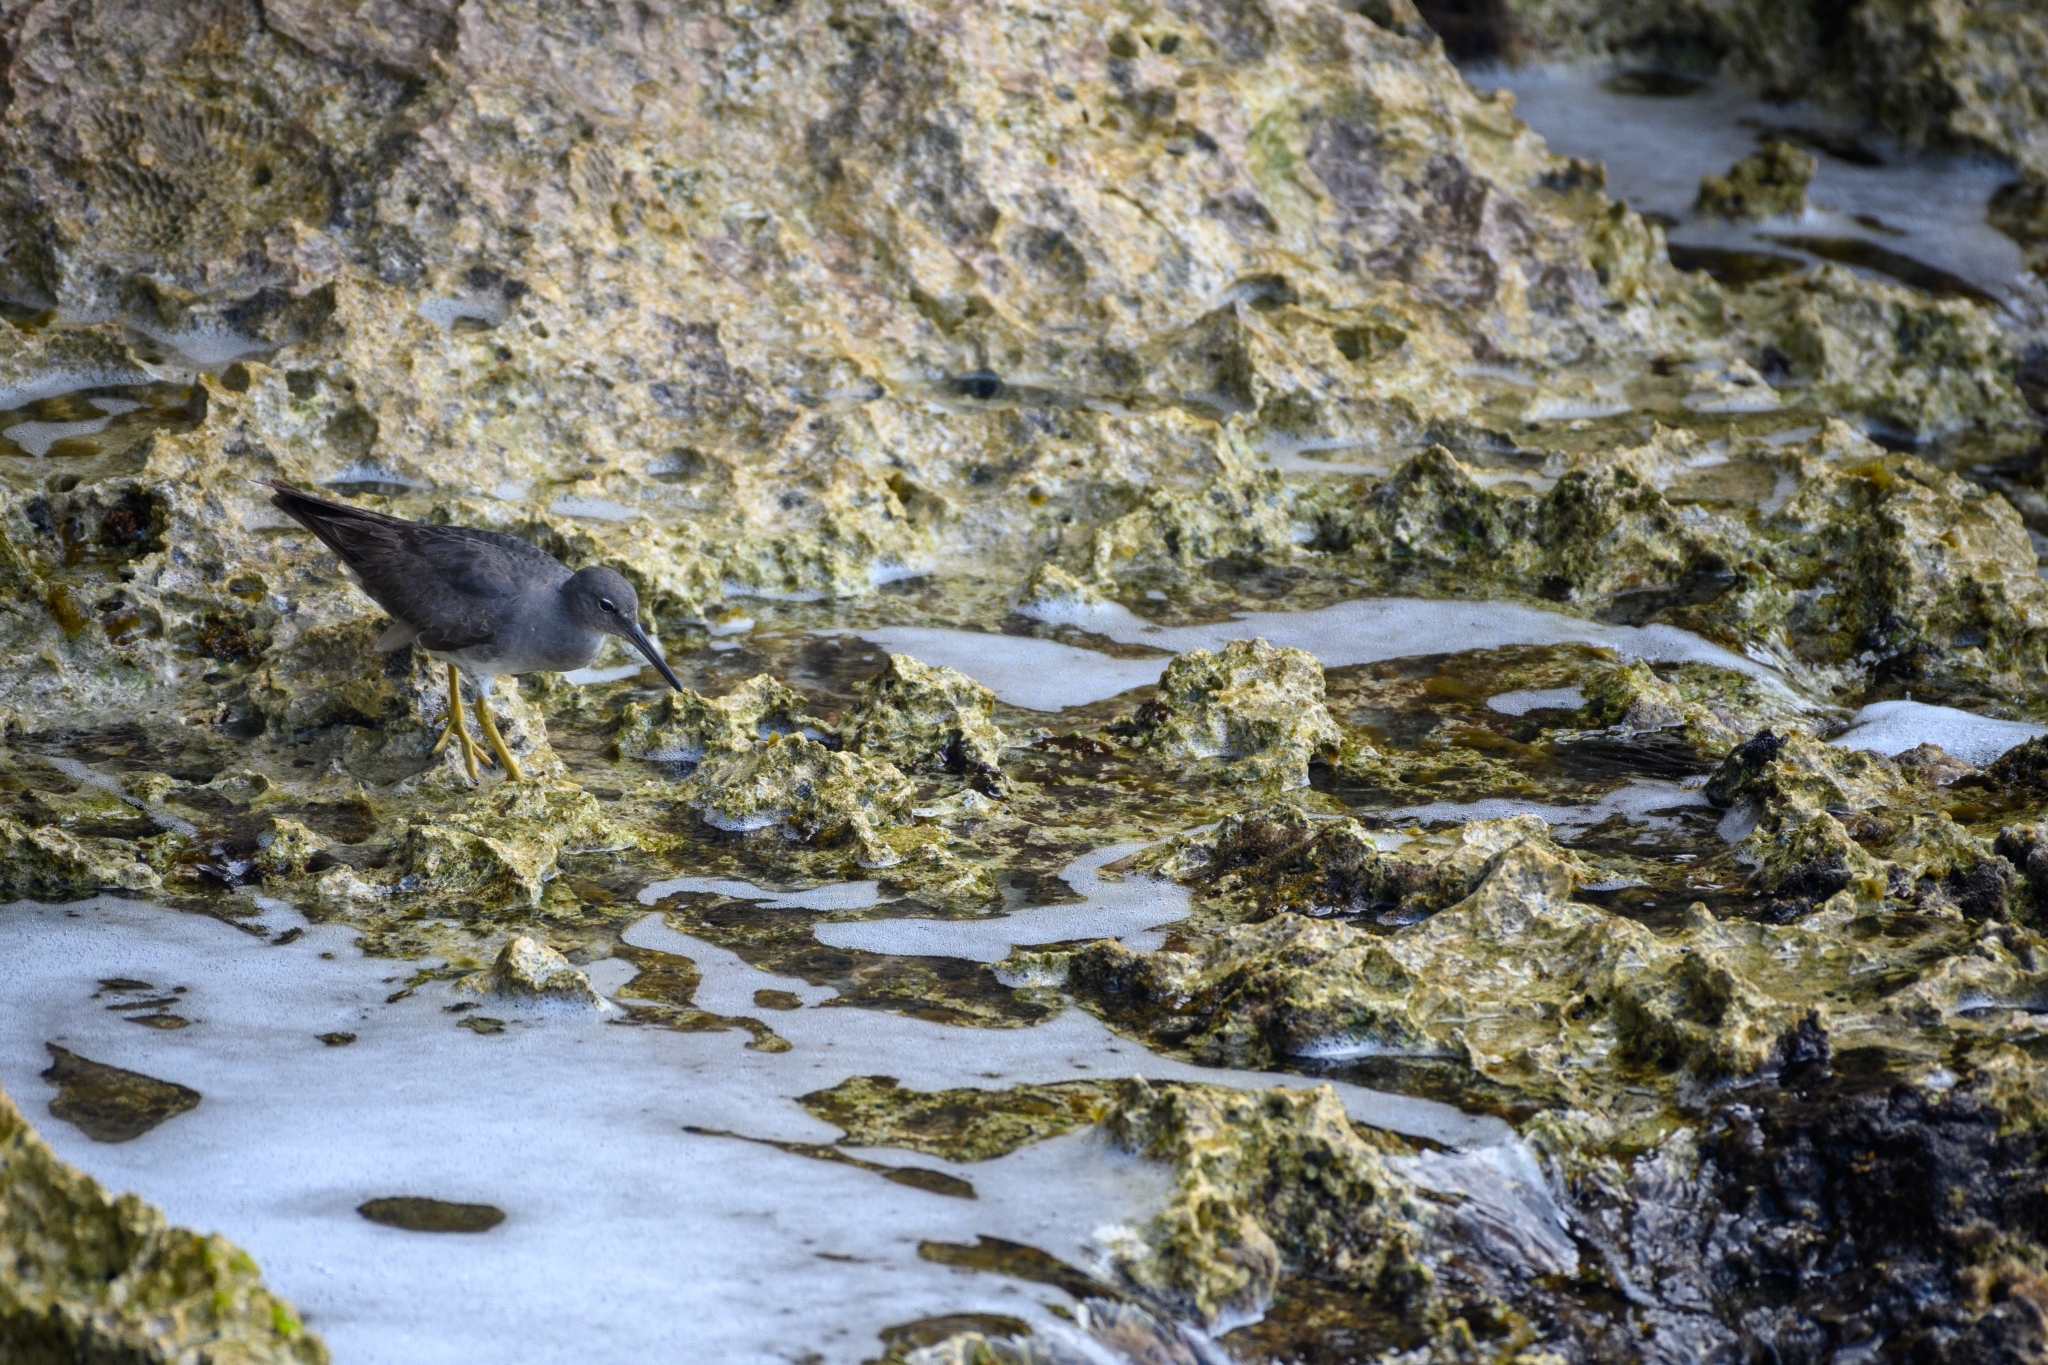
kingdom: Animalia
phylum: Chordata
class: Aves
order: Charadriiformes
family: Scolopacidae
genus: Tringa
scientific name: Tringa incana
